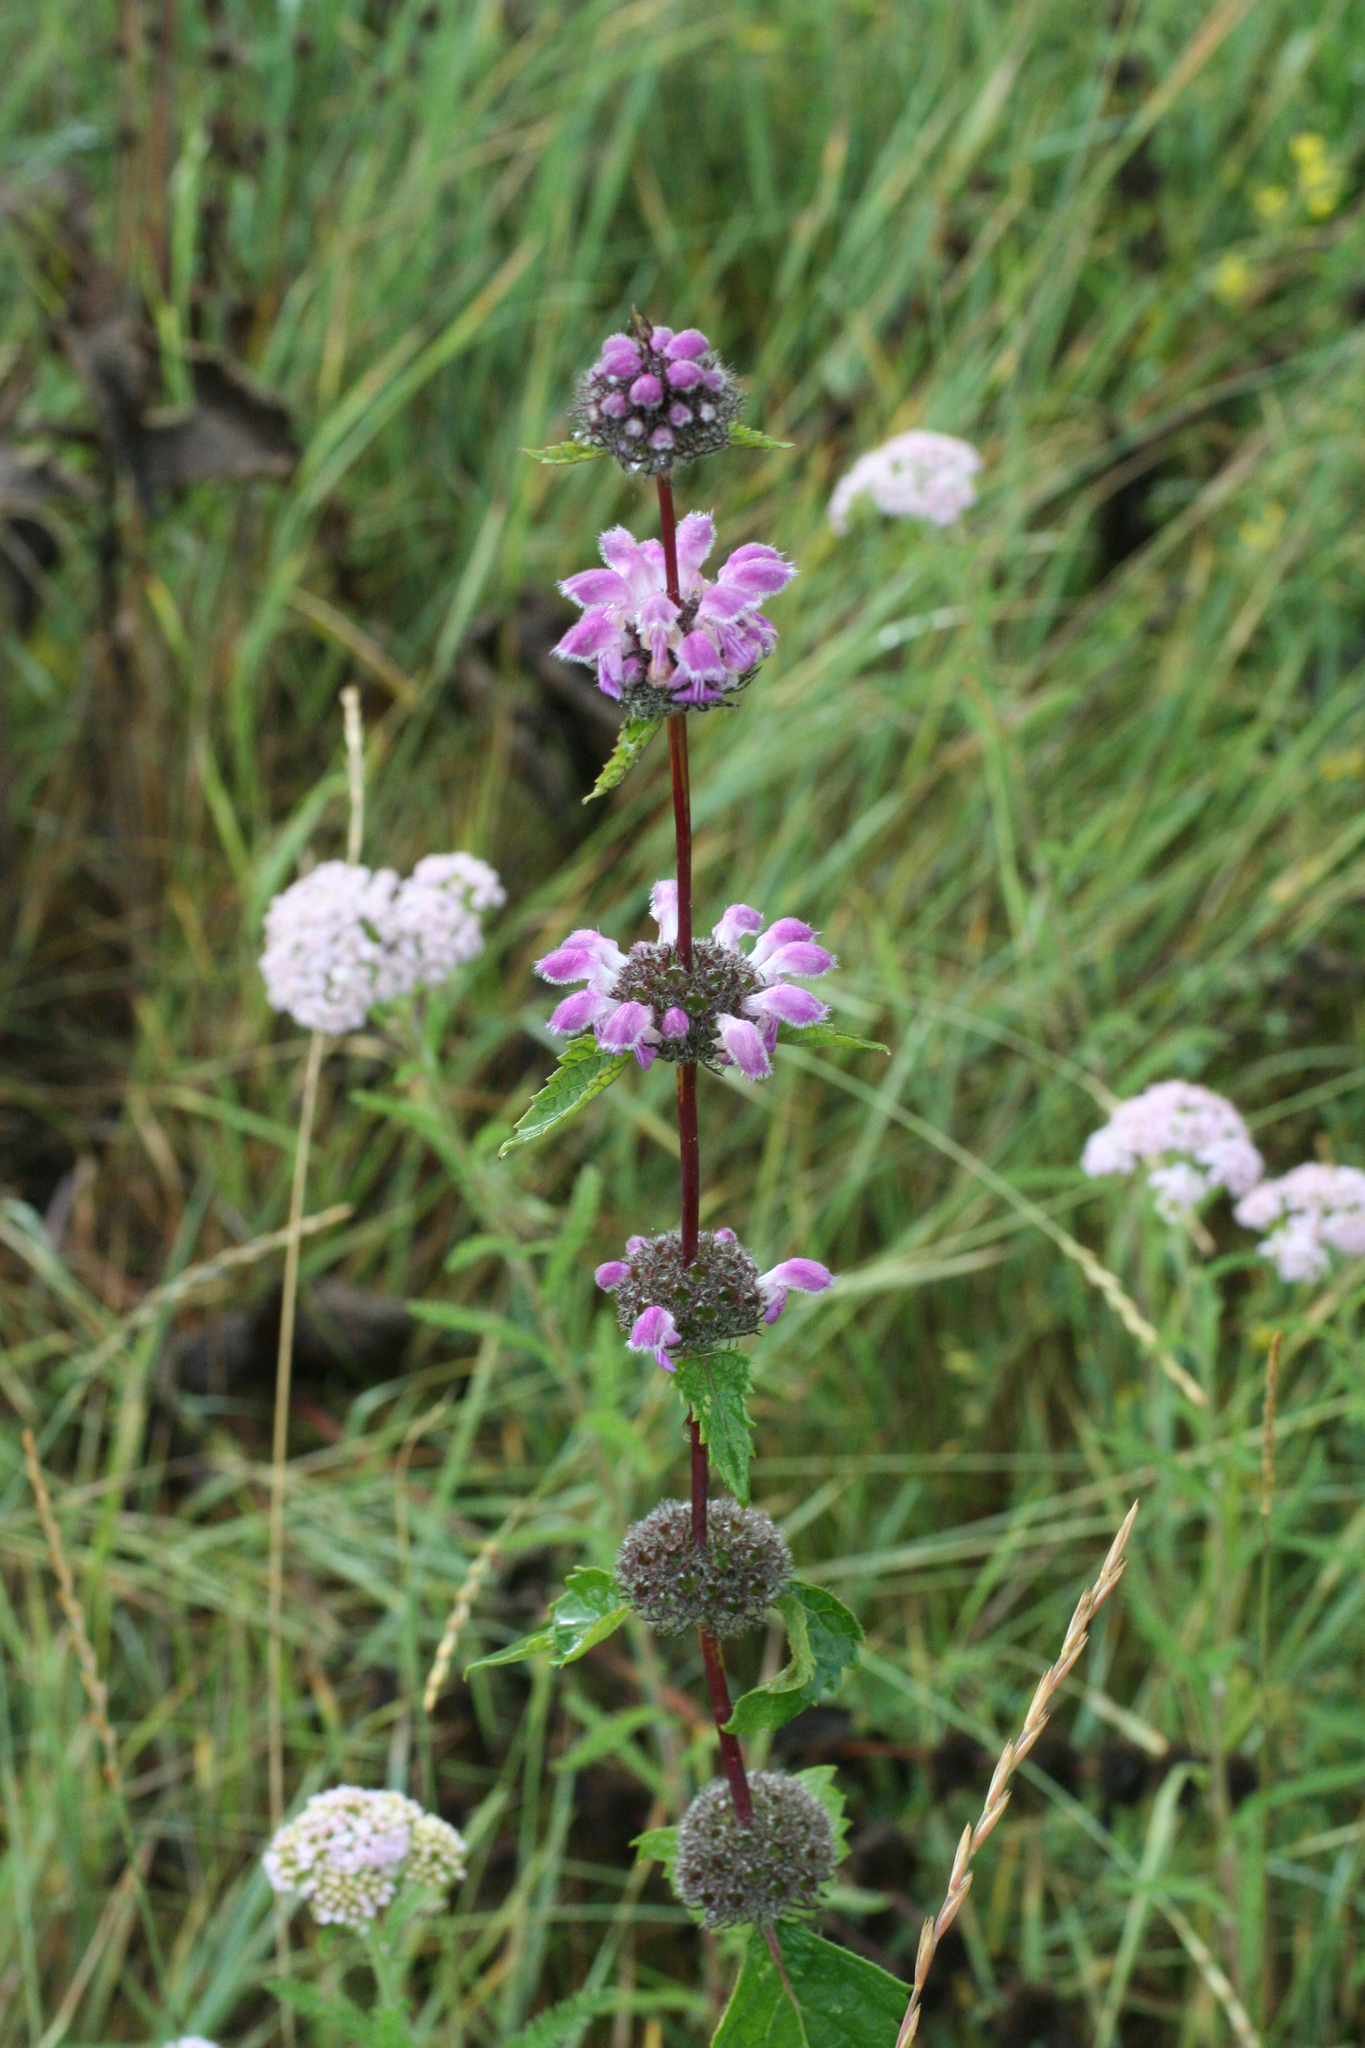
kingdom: Plantae
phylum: Tracheophyta
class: Magnoliopsida
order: Lamiales
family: Lamiaceae
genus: Phlomoides
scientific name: Phlomoides tuberosa
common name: Tuberous jerusalem sage
